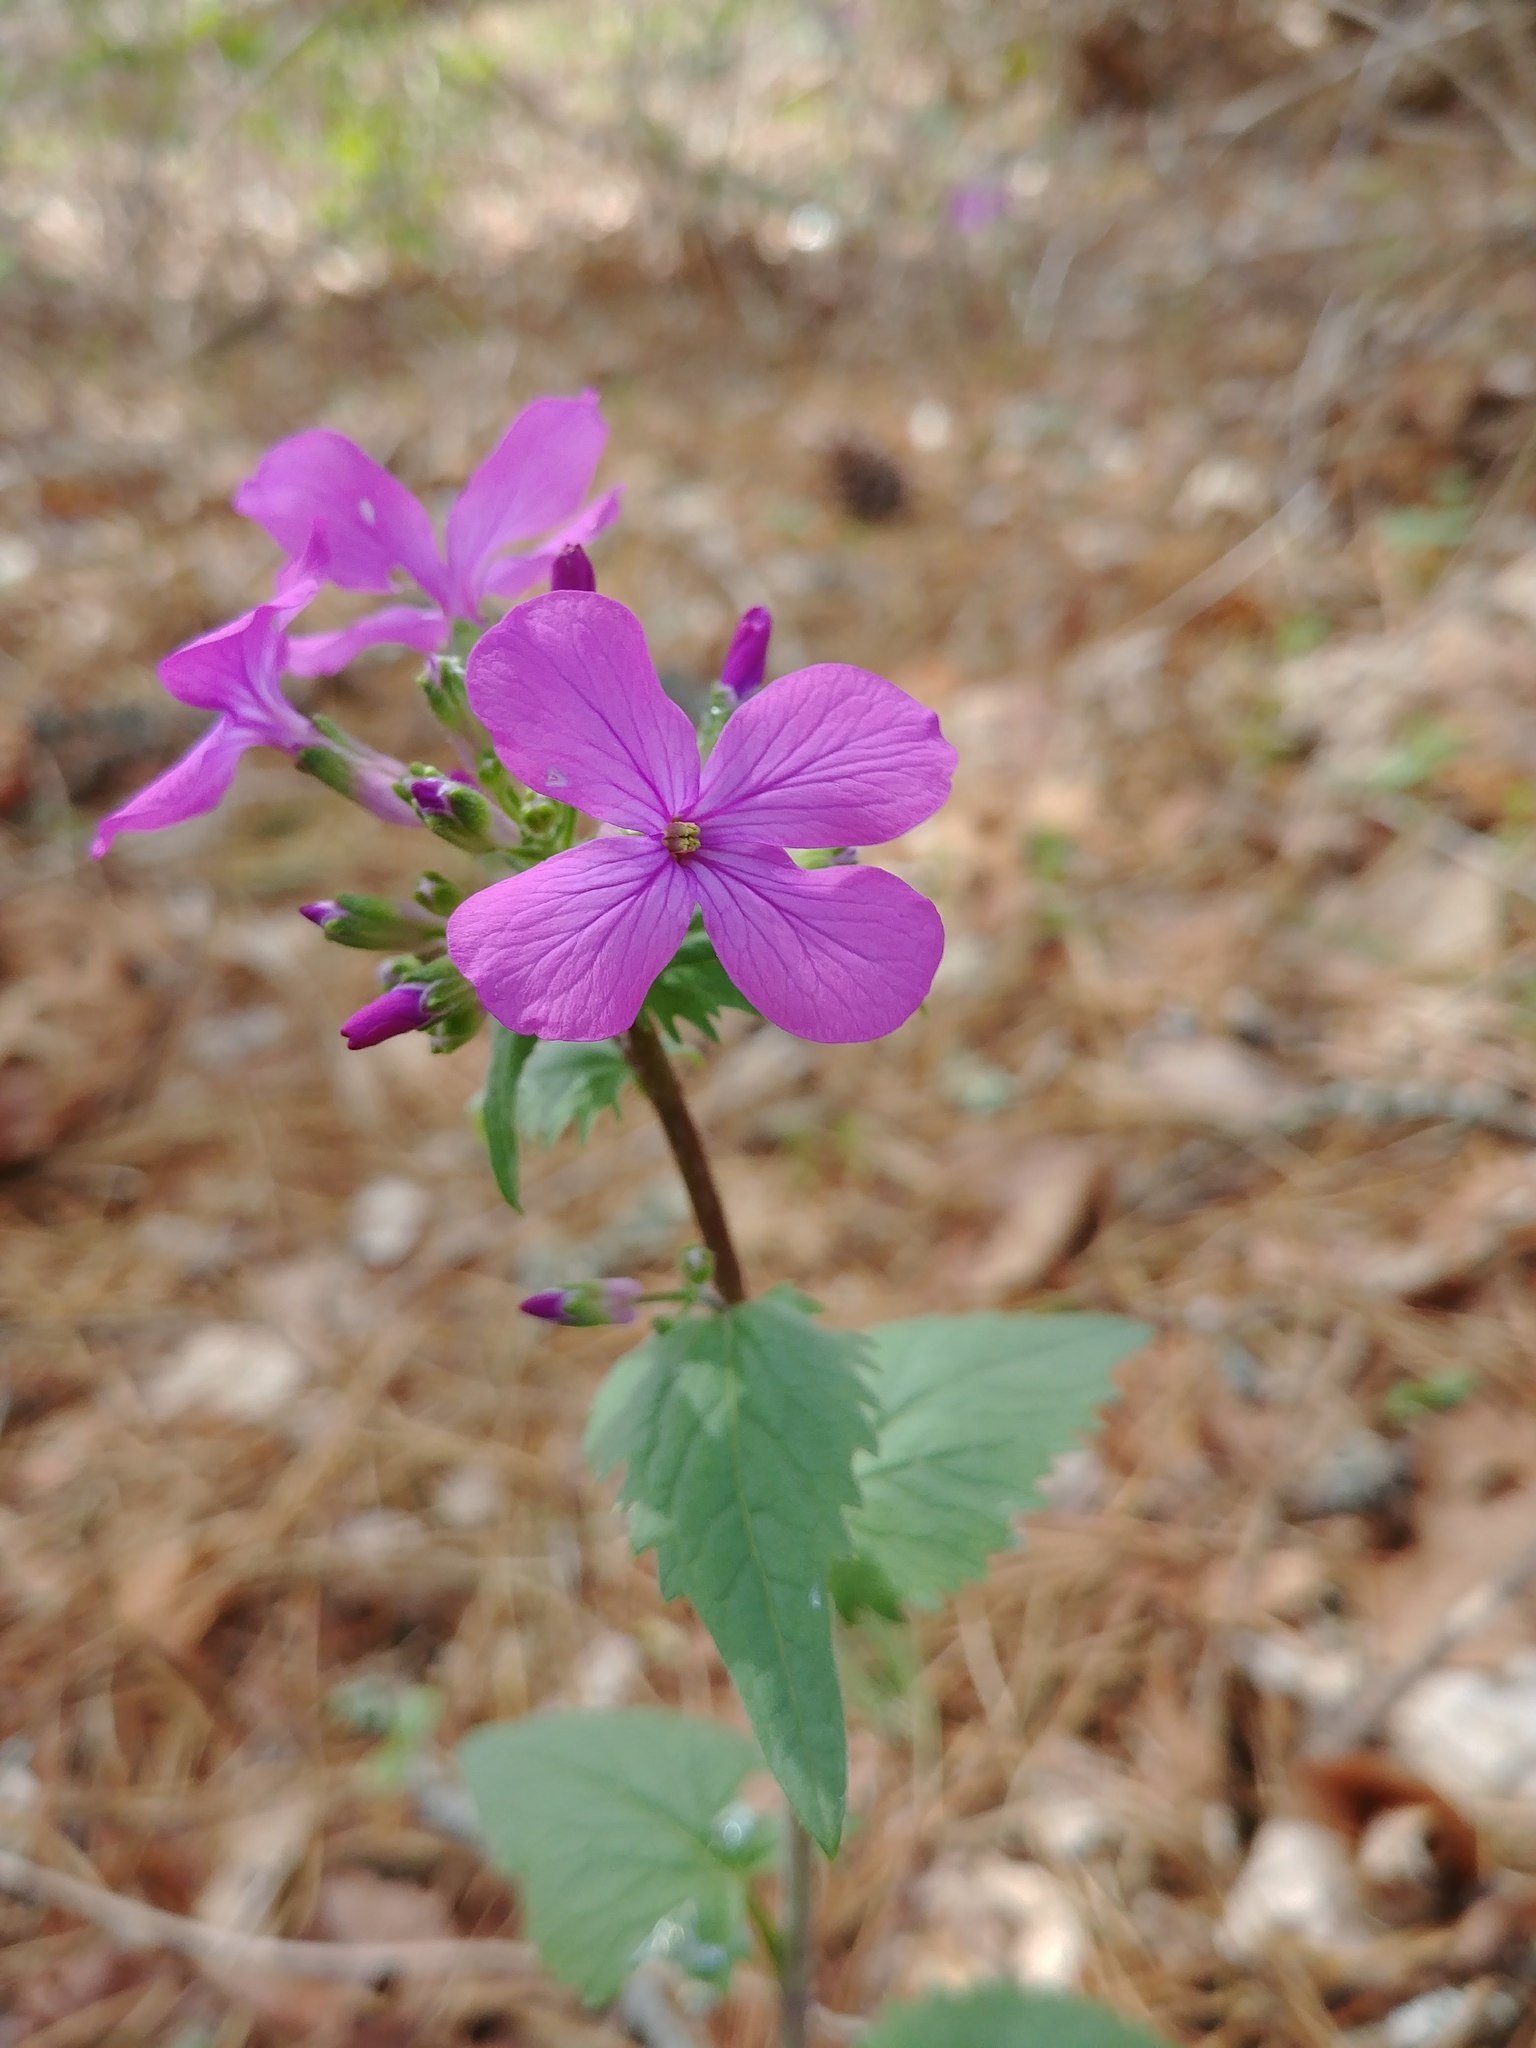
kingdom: Plantae
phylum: Tracheophyta
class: Magnoliopsida
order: Brassicales
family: Brassicaceae
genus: Lunaria
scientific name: Lunaria annua
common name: Honesty
